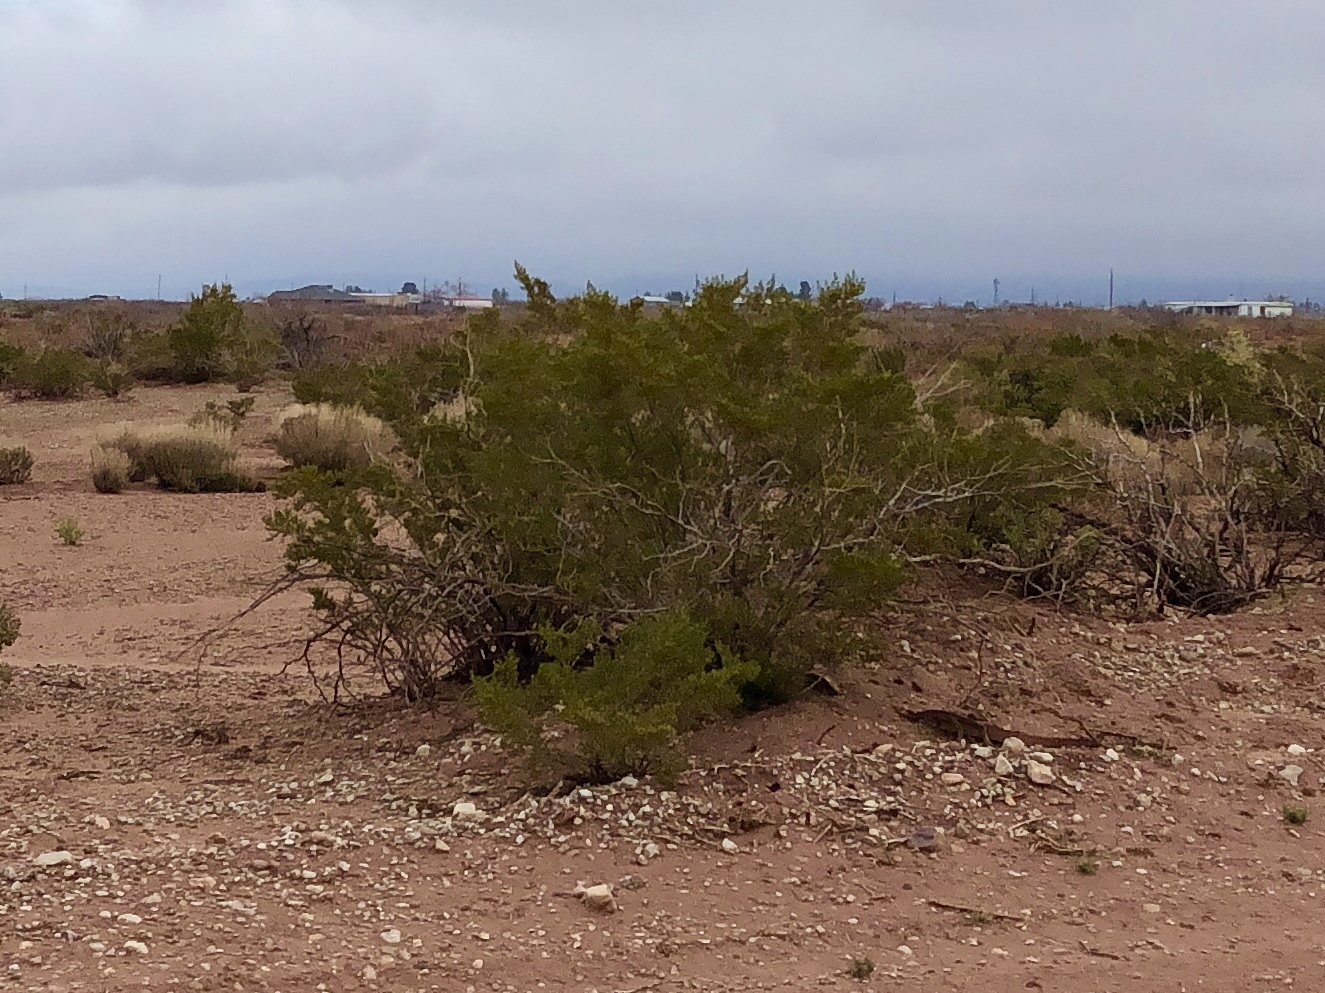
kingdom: Plantae
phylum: Tracheophyta
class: Magnoliopsida
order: Zygophyllales
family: Zygophyllaceae
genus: Larrea
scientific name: Larrea tridentata
